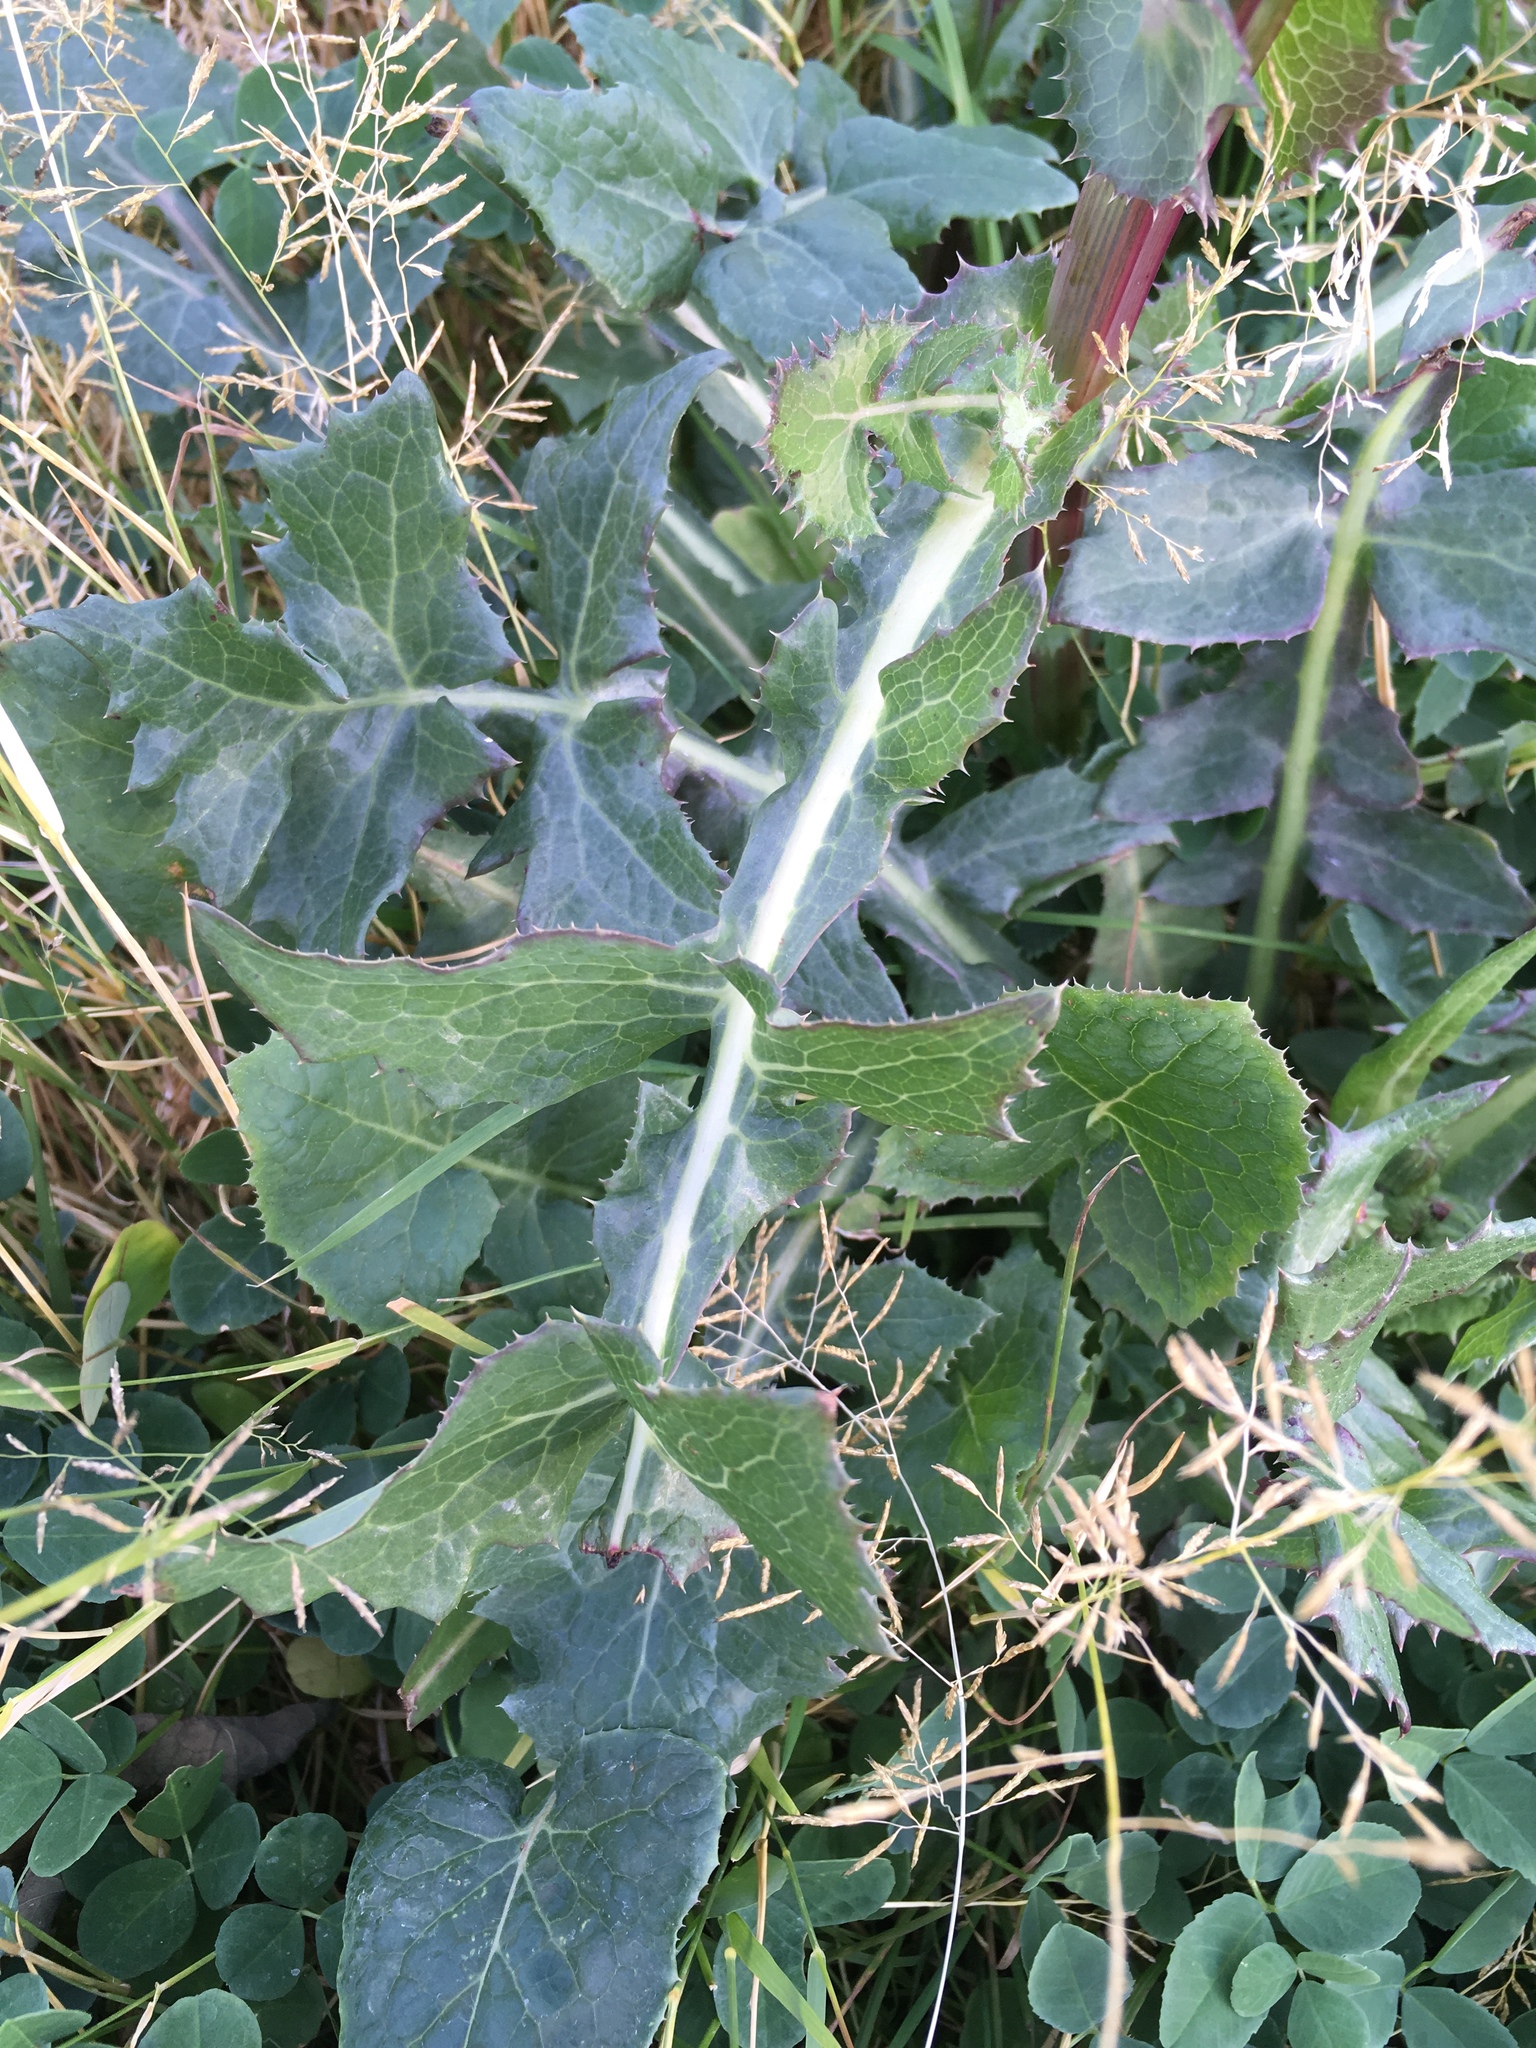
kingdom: Plantae
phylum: Tracheophyta
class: Magnoliopsida
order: Asterales
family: Asteraceae
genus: Sonchus
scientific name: Sonchus oleraceus
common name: Common sowthistle
